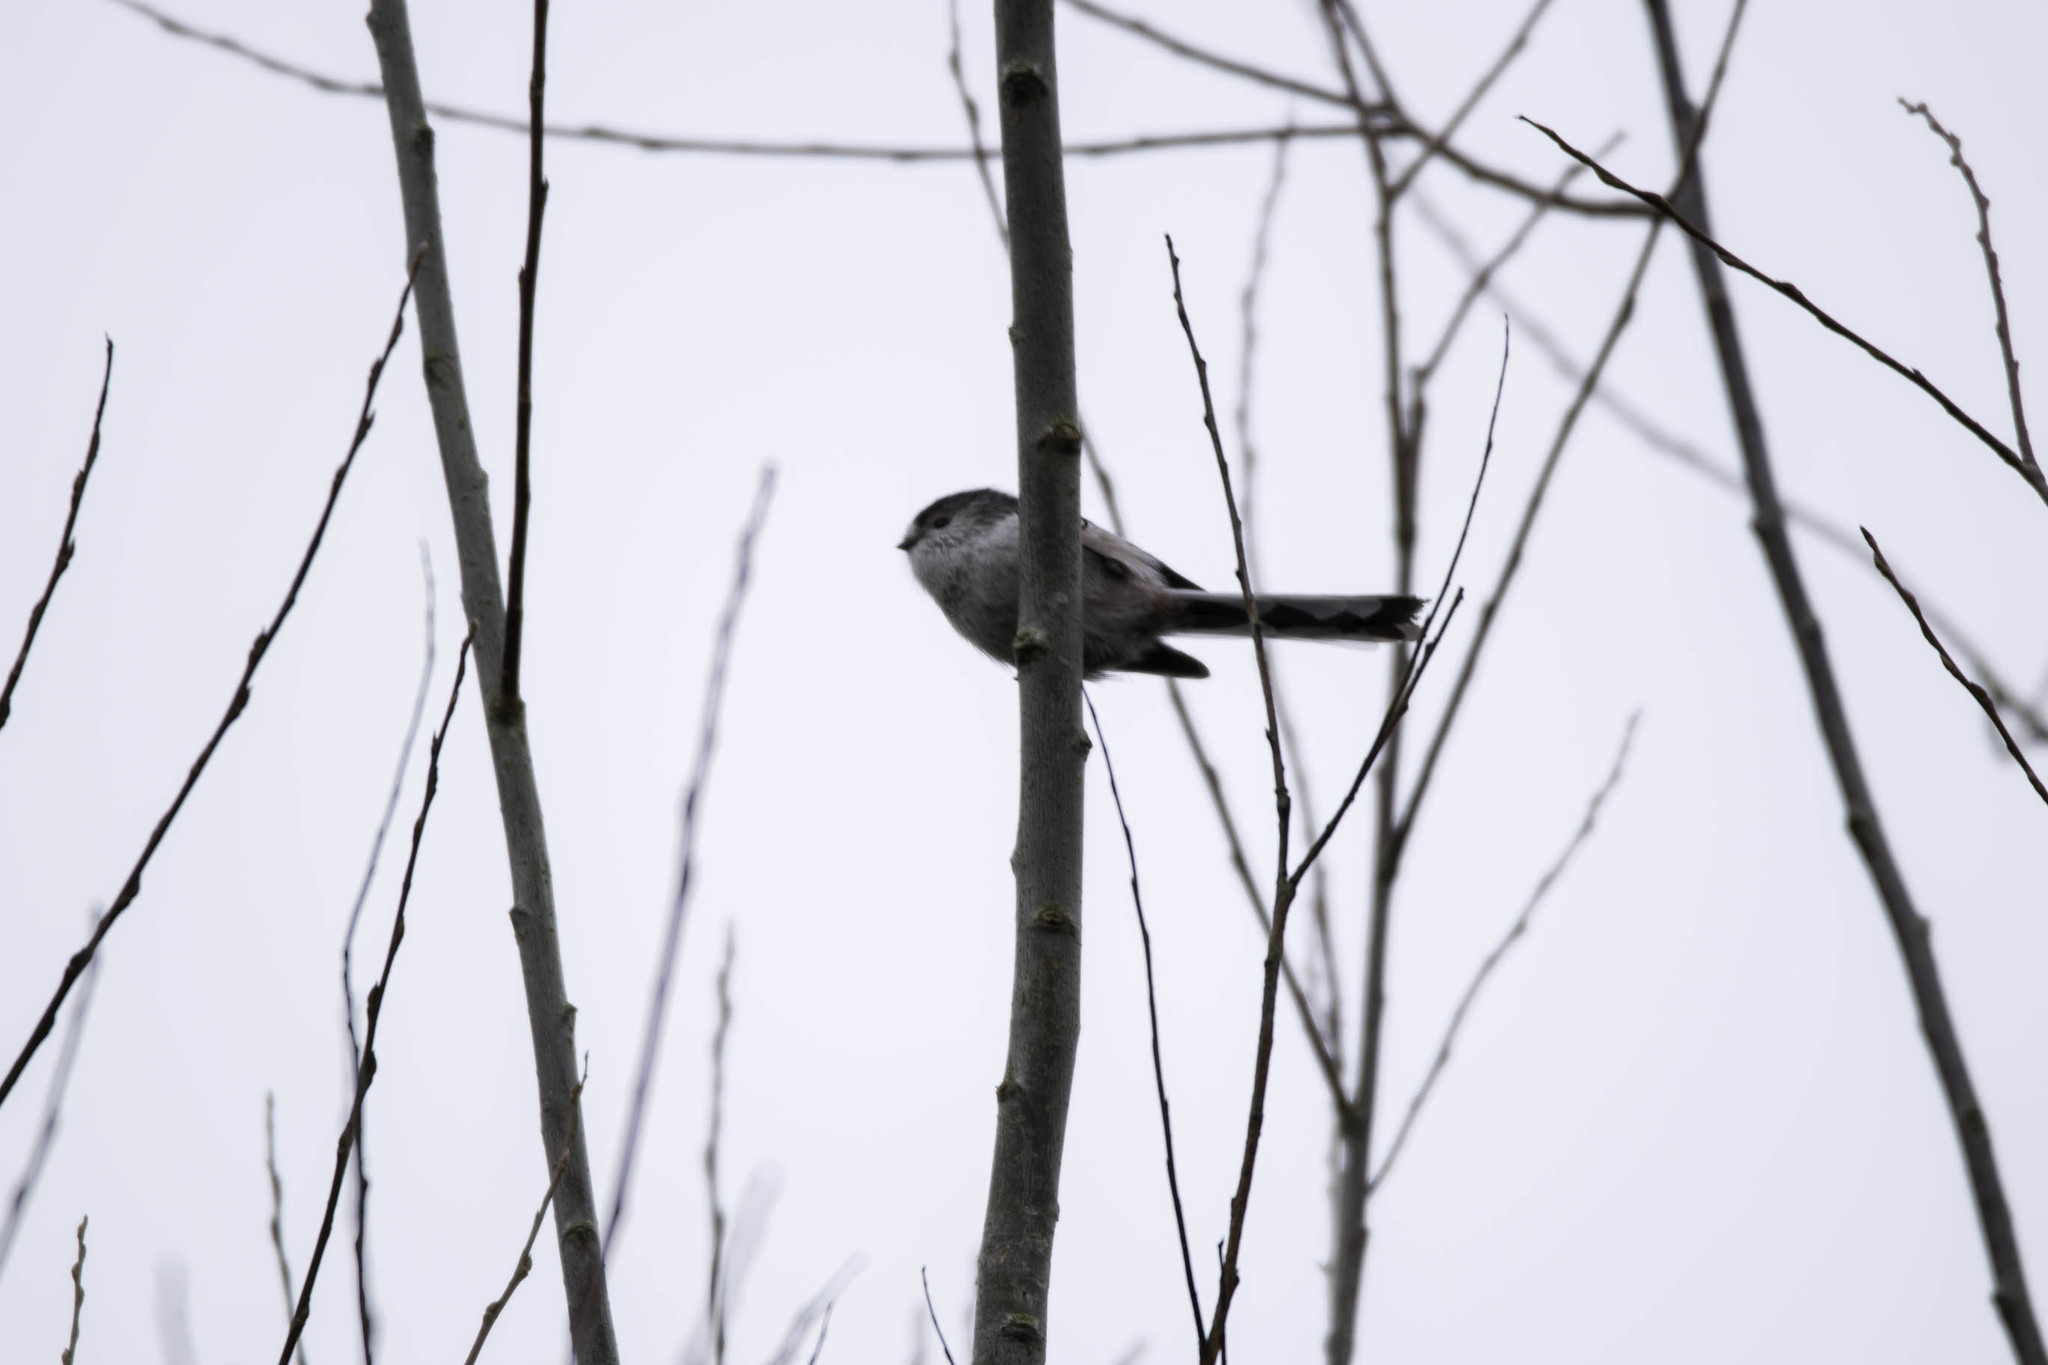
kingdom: Animalia
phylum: Chordata
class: Aves
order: Passeriformes
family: Aegithalidae
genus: Aegithalos
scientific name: Aegithalos caudatus
